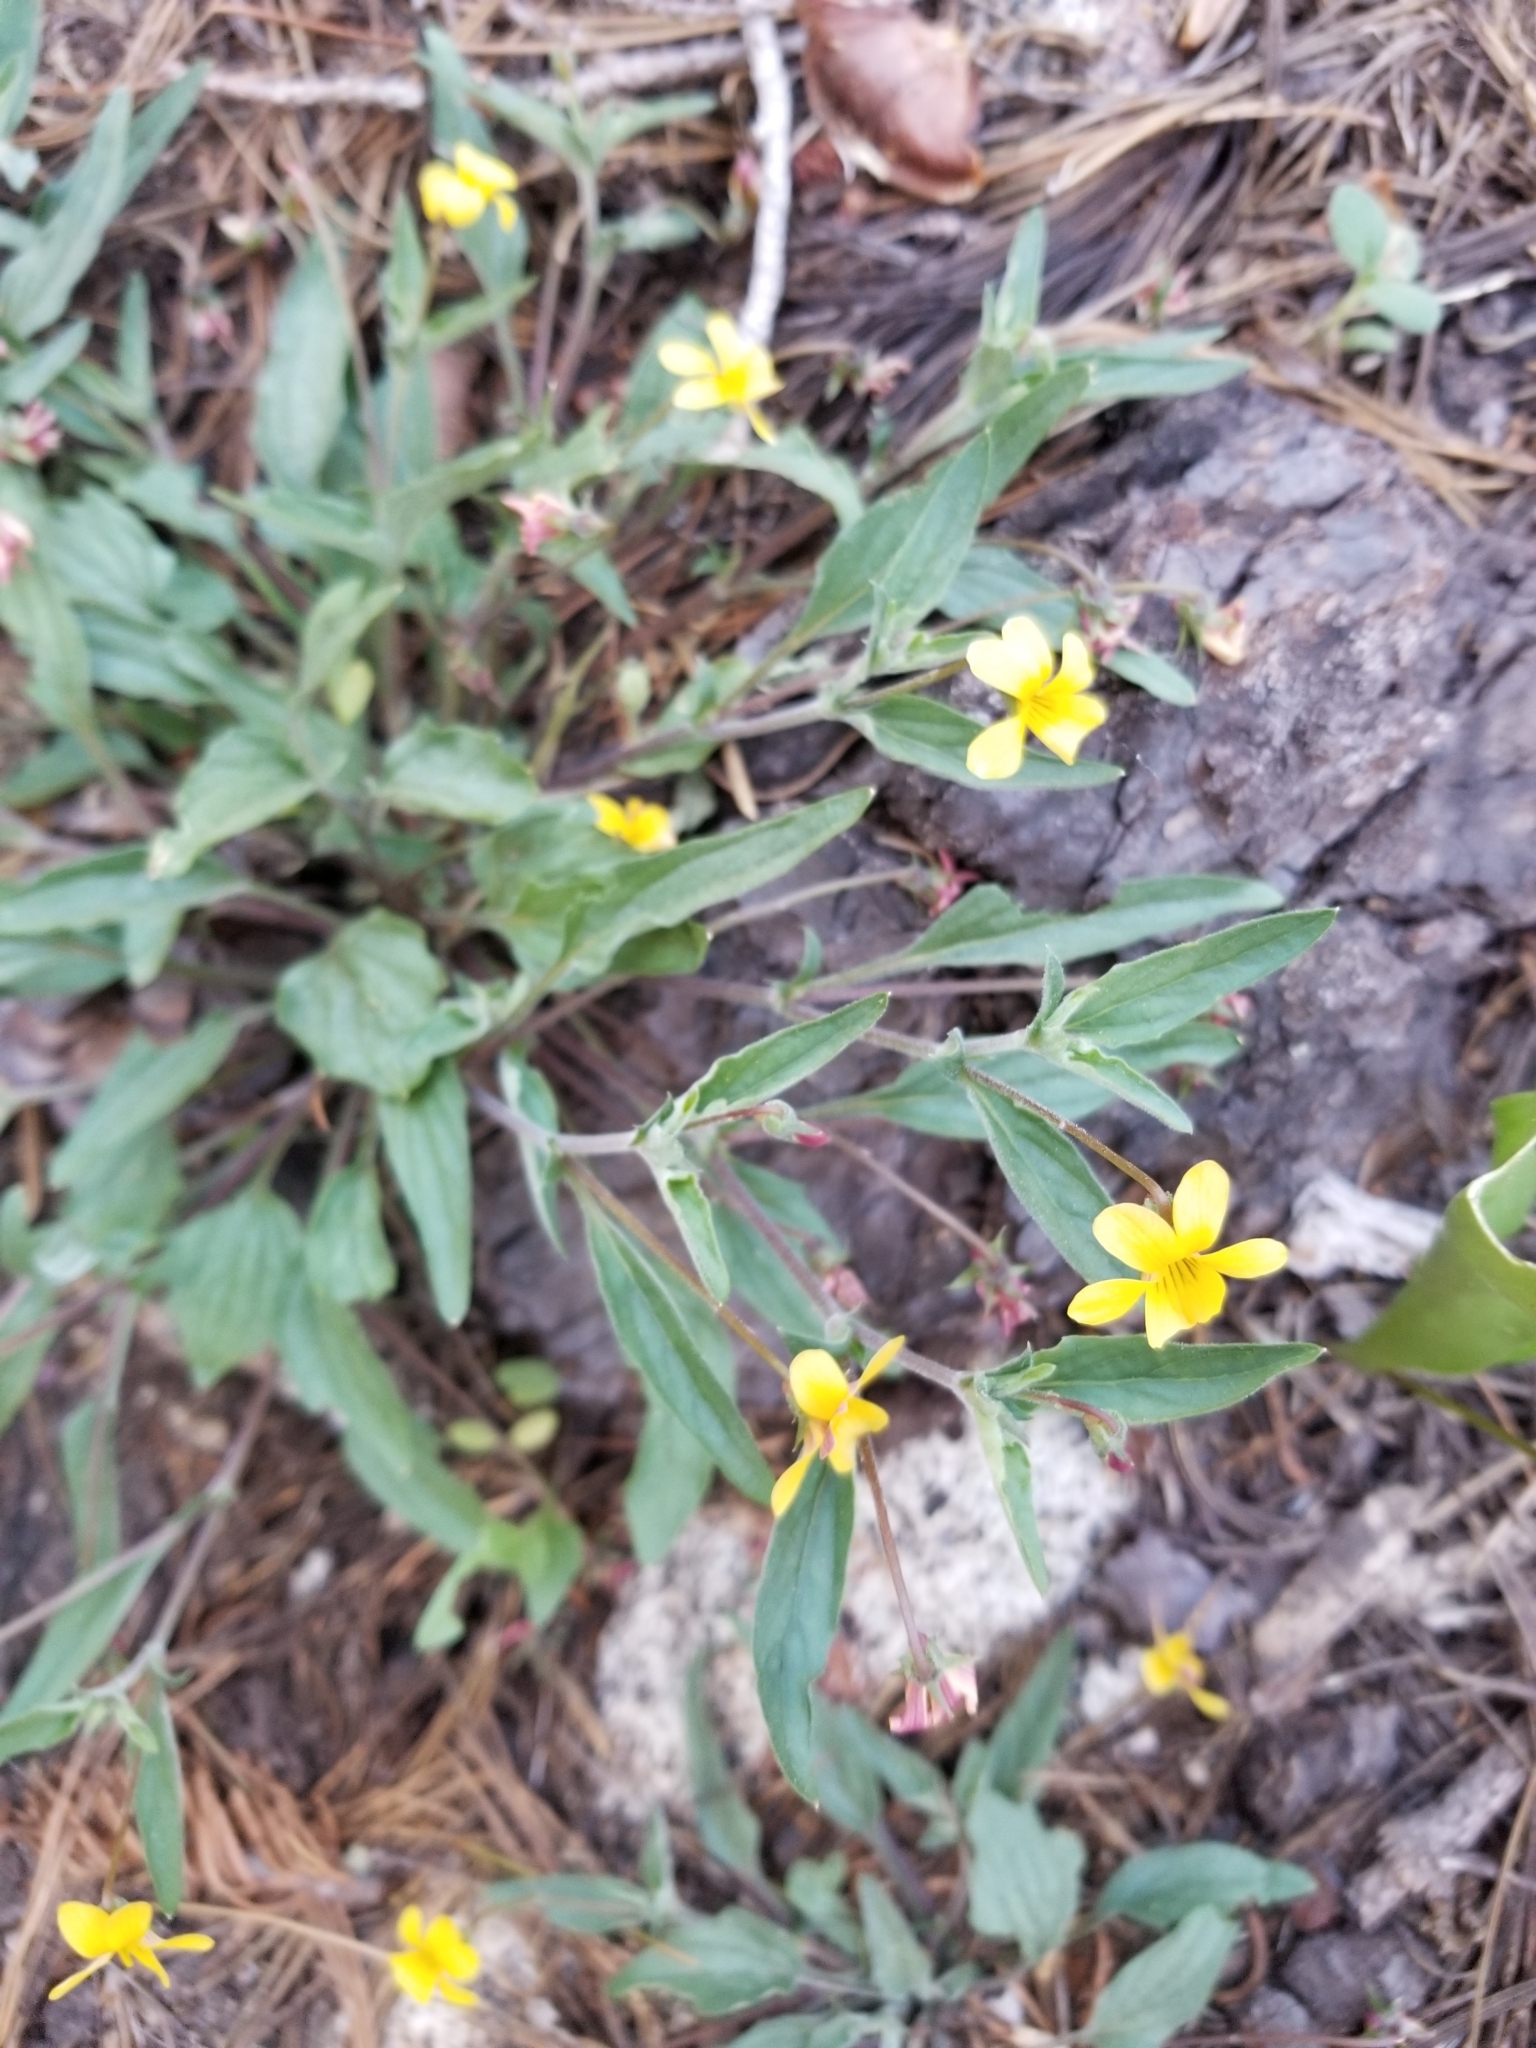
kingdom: Plantae
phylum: Tracheophyta
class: Magnoliopsida
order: Malpighiales
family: Violaceae
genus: Viola
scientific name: Viola pinetorum
